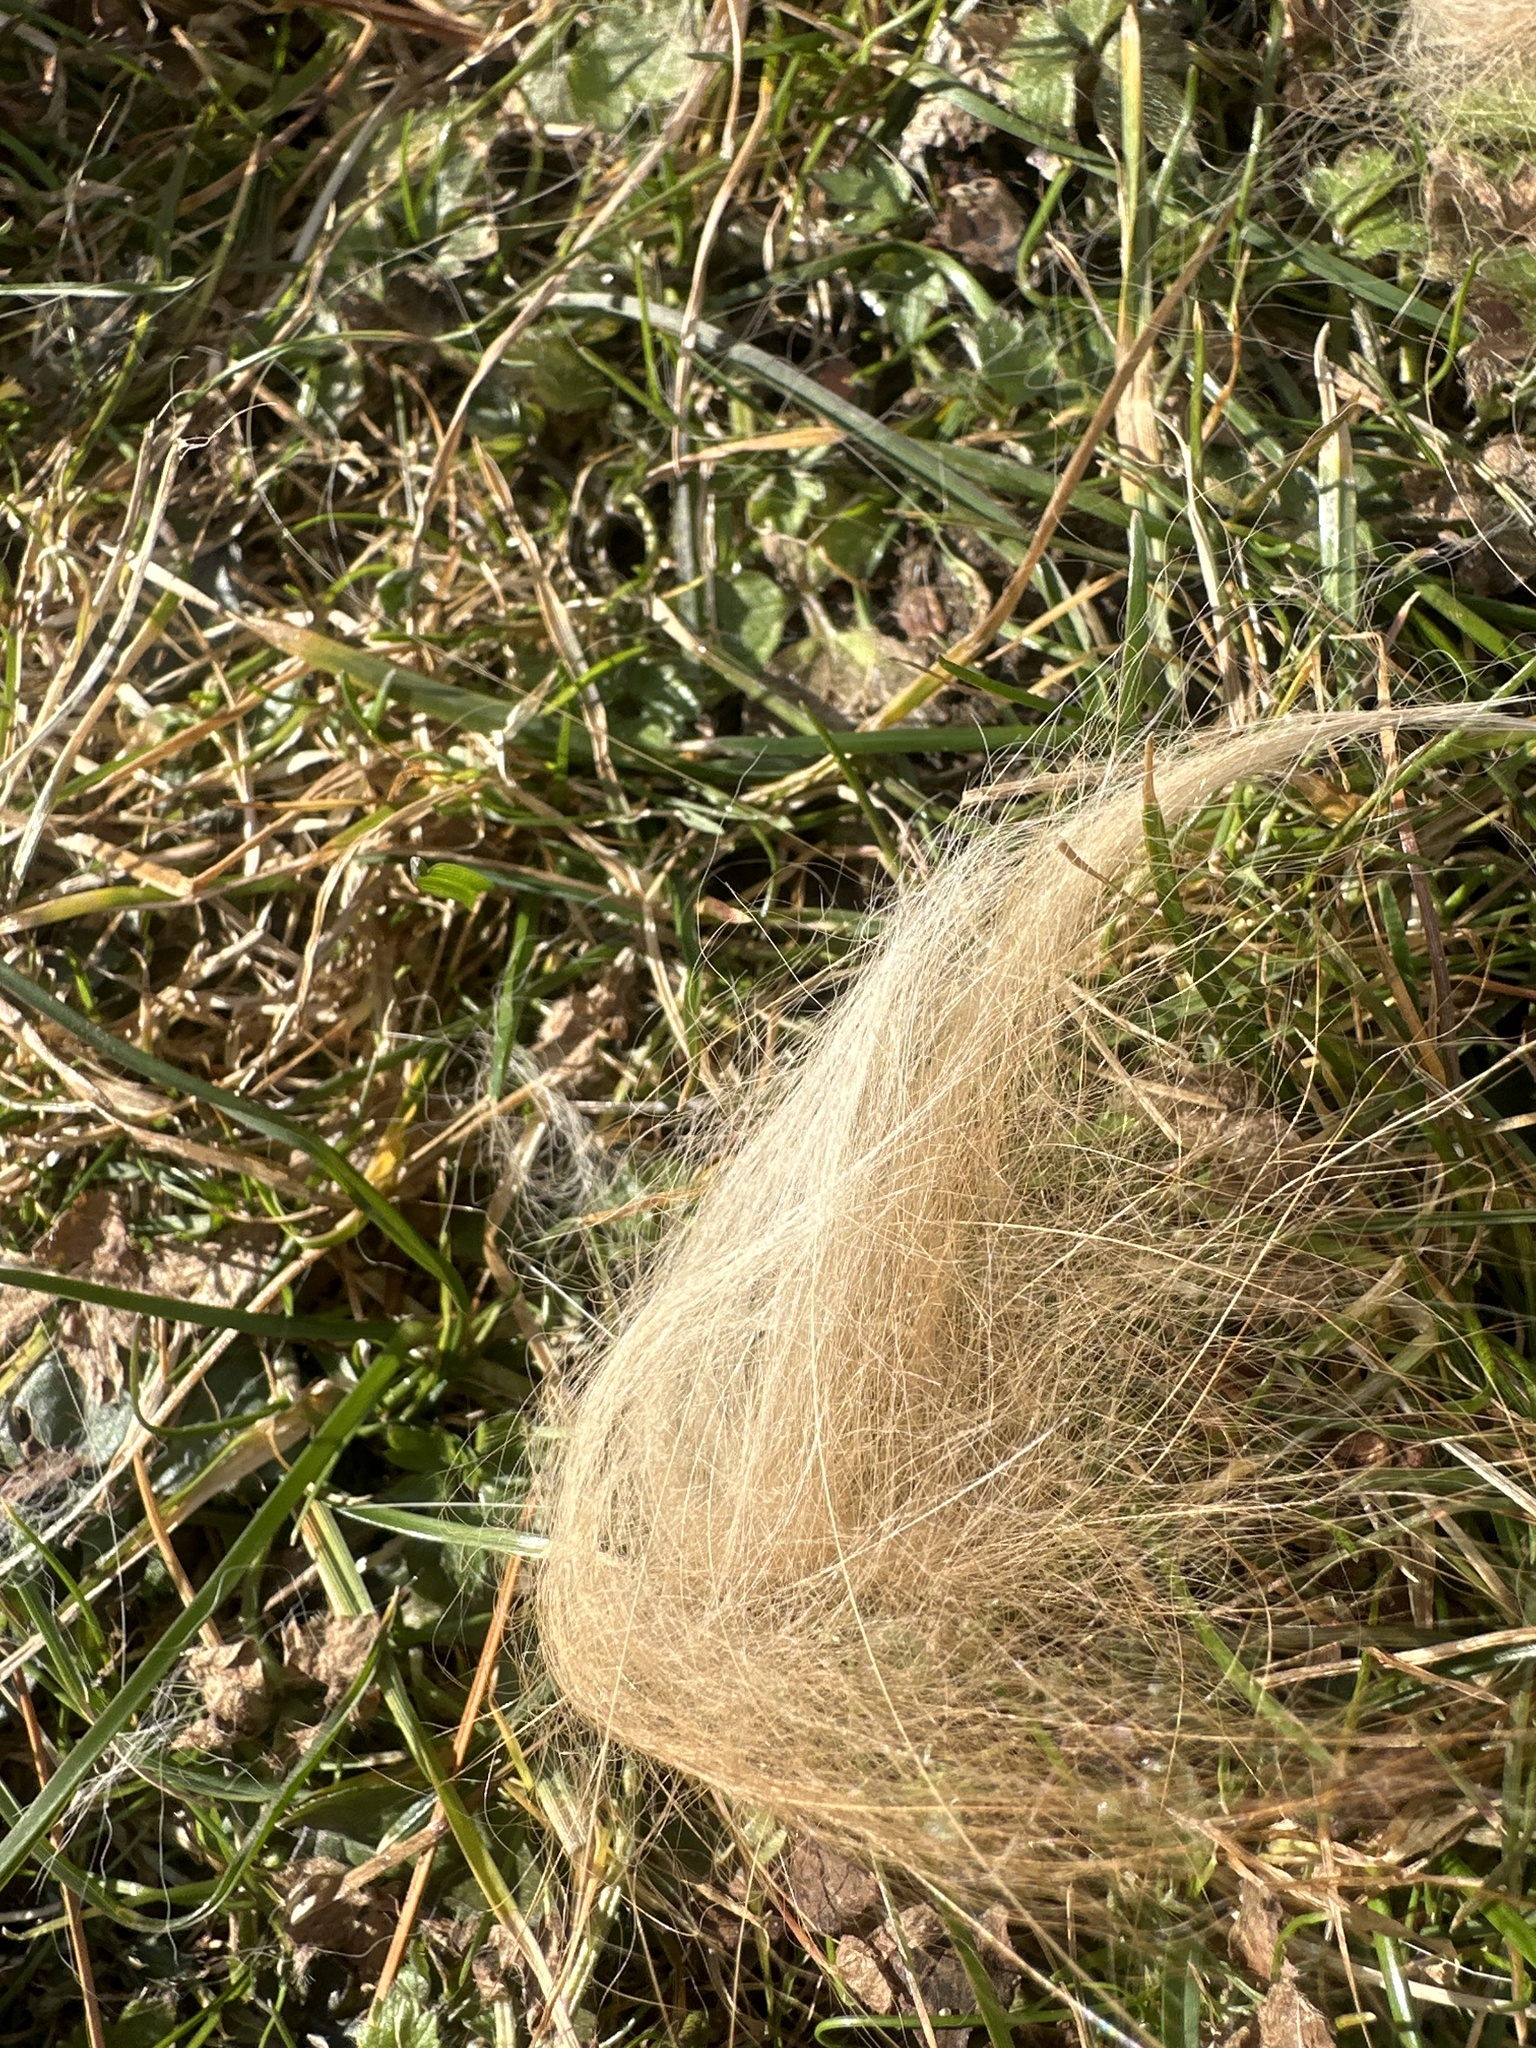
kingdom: Animalia
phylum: Chordata
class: Mammalia
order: Carnivora
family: Felidae
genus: Felis
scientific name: Felis catus
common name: Domestic cat
